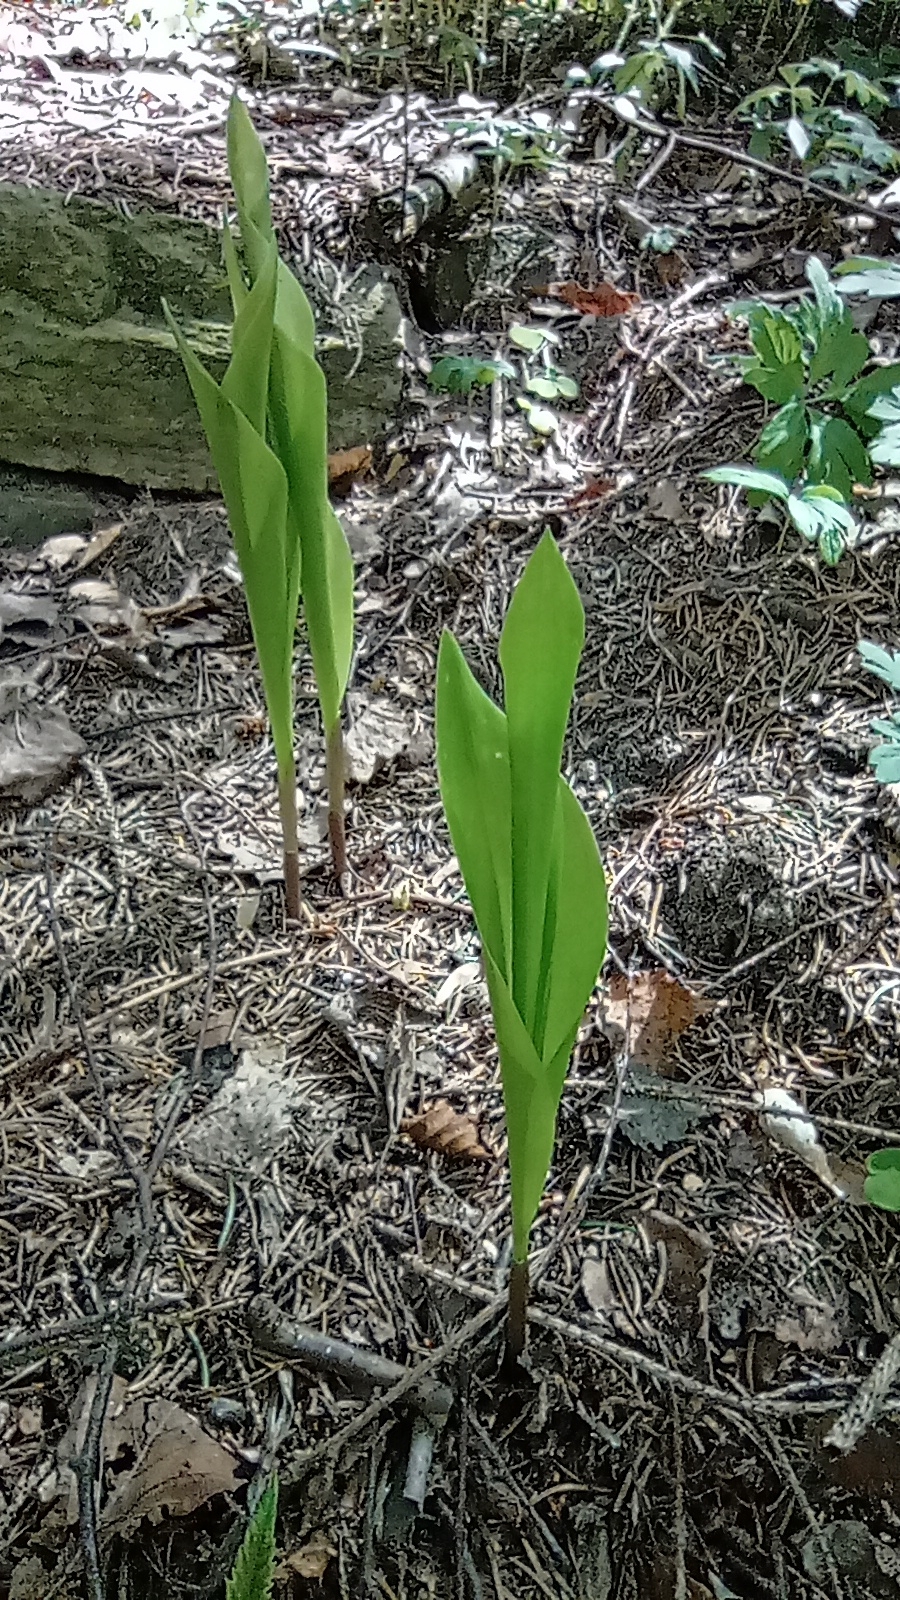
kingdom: Plantae
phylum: Tracheophyta
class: Liliopsida
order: Asparagales
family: Asparagaceae
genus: Convallaria
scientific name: Convallaria majalis
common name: Lily-of-the-valley
